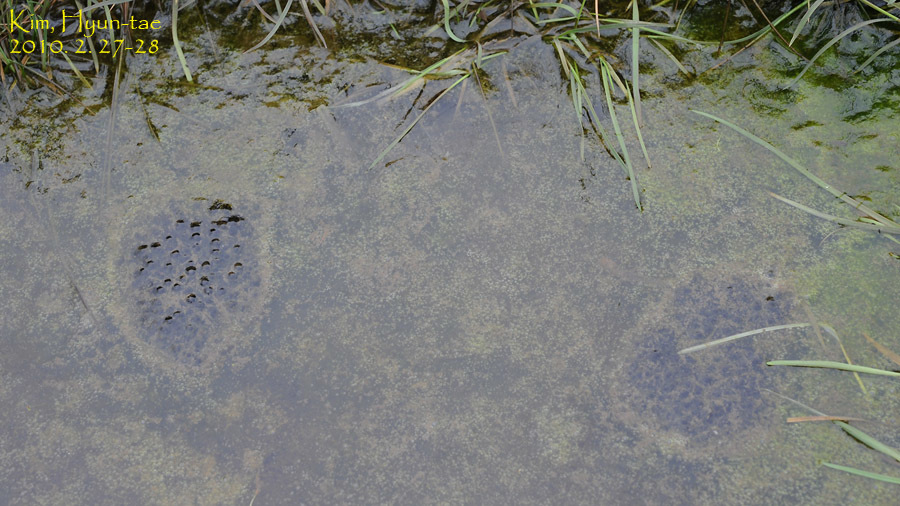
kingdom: Animalia
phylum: Chordata
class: Amphibia
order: Anura
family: Ranidae
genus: Rana
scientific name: Rana coreana
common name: Korean brown frog
